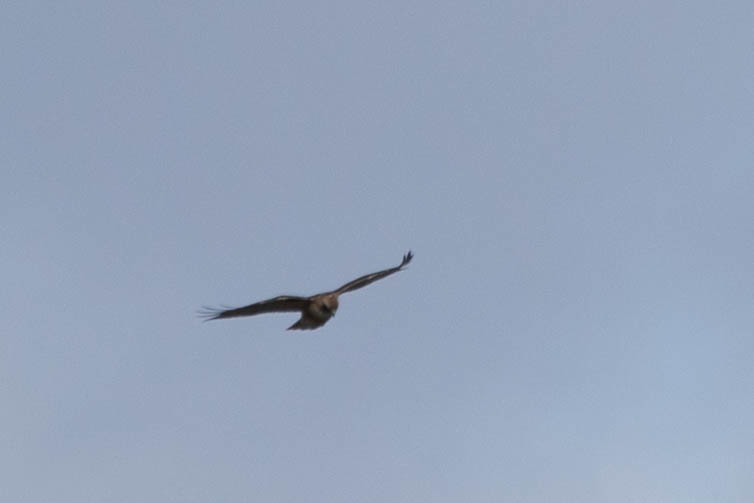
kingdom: Animalia
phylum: Chordata
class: Aves
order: Accipitriformes
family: Accipitridae
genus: Buteo
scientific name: Buteo jamaicensis
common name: Red-tailed hawk
